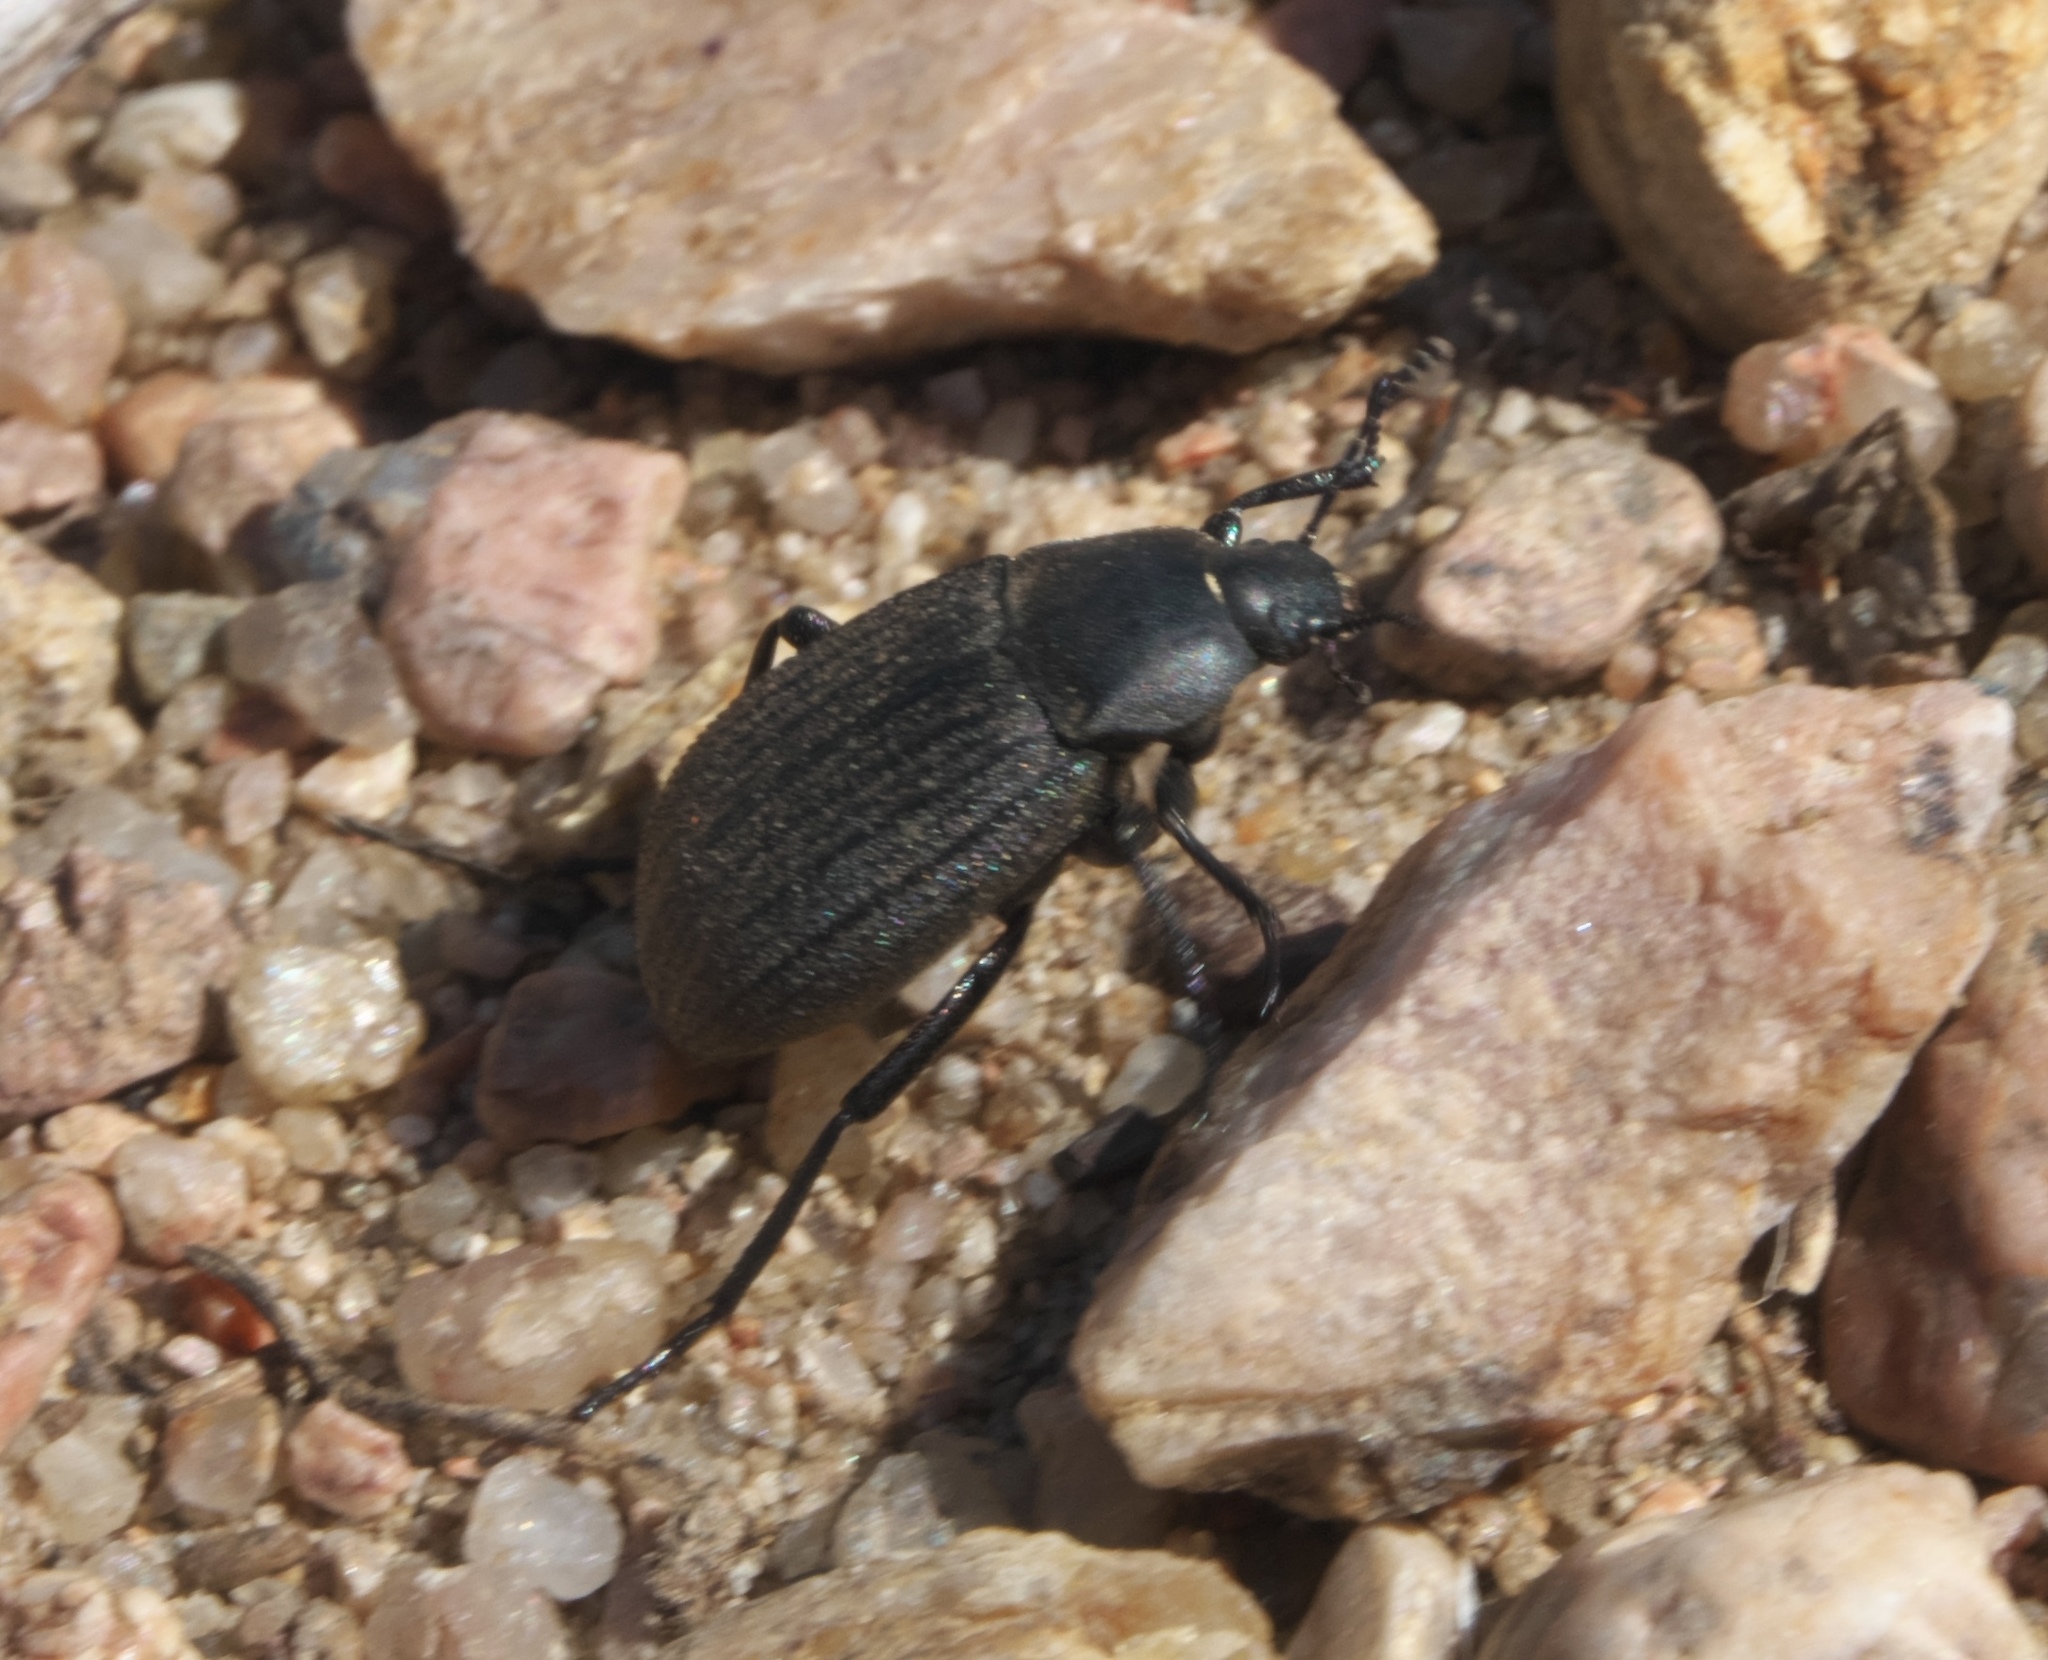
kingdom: Animalia
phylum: Arthropoda
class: Insecta
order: Coleoptera
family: Tenebrionidae
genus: Eleodes
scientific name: Eleodes tricostata
